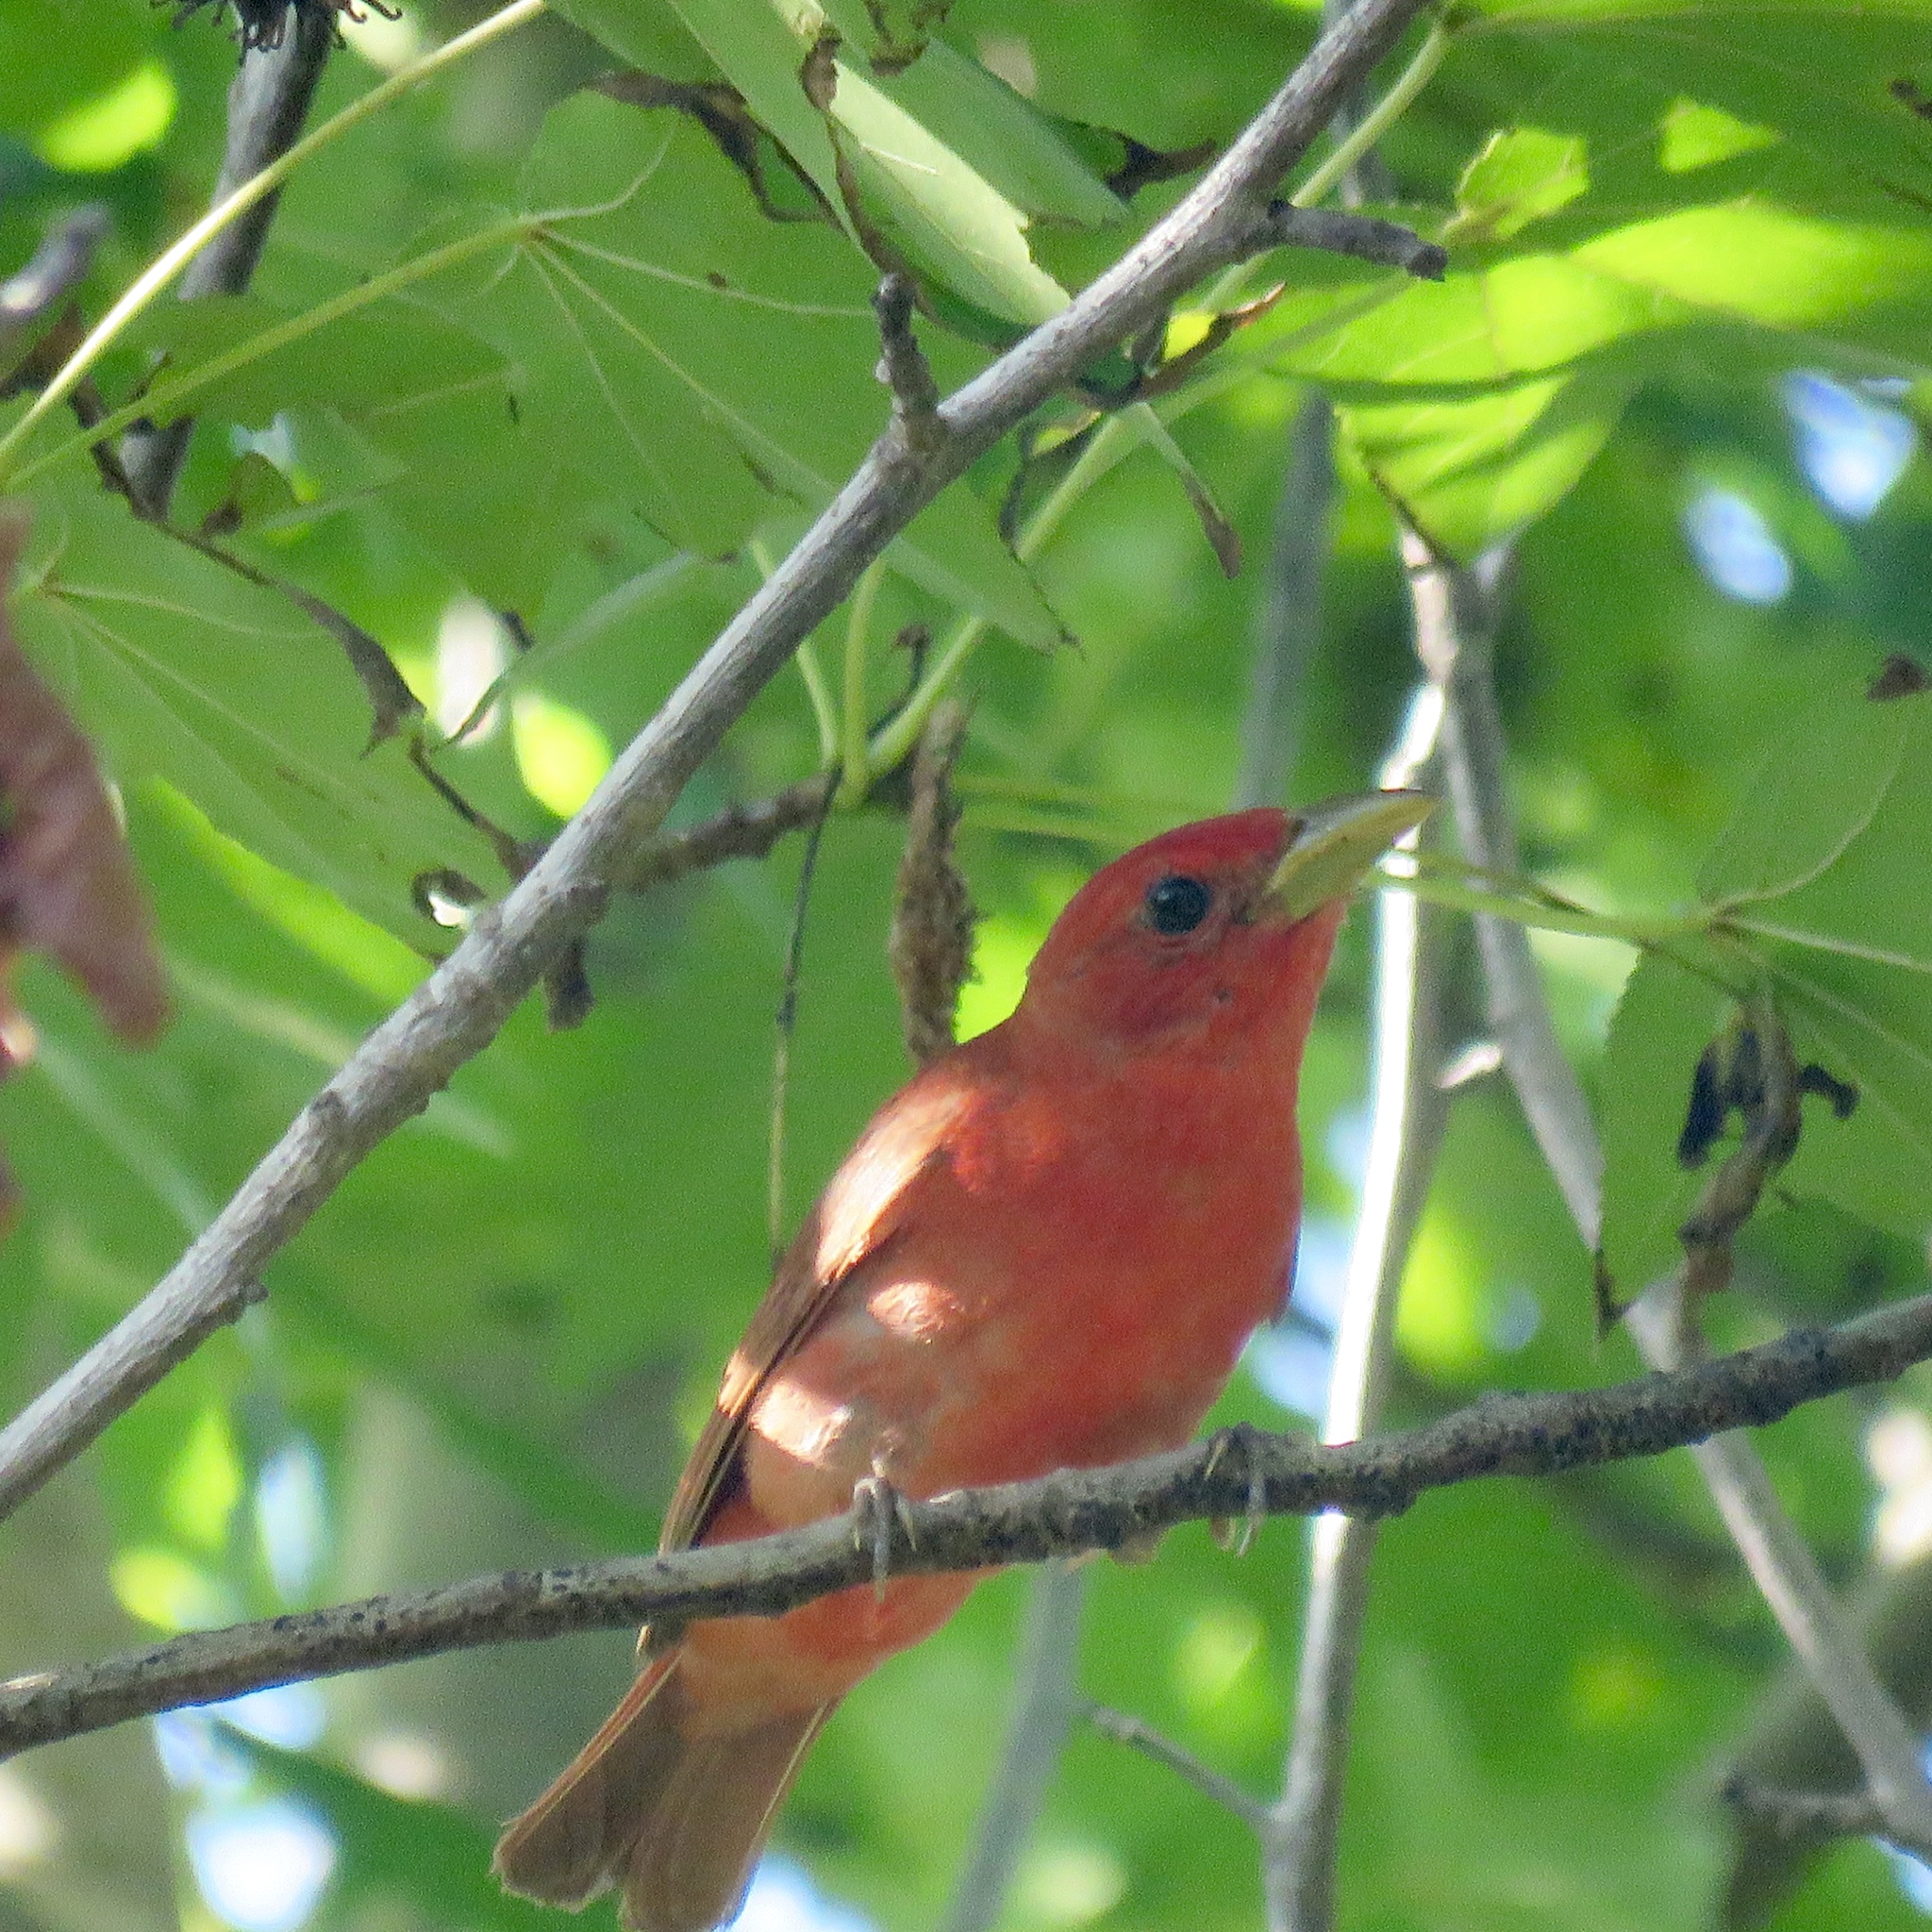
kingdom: Animalia
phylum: Chordata
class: Aves
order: Passeriformes
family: Cardinalidae
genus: Piranga
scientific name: Piranga rubra
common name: Summer tanager
